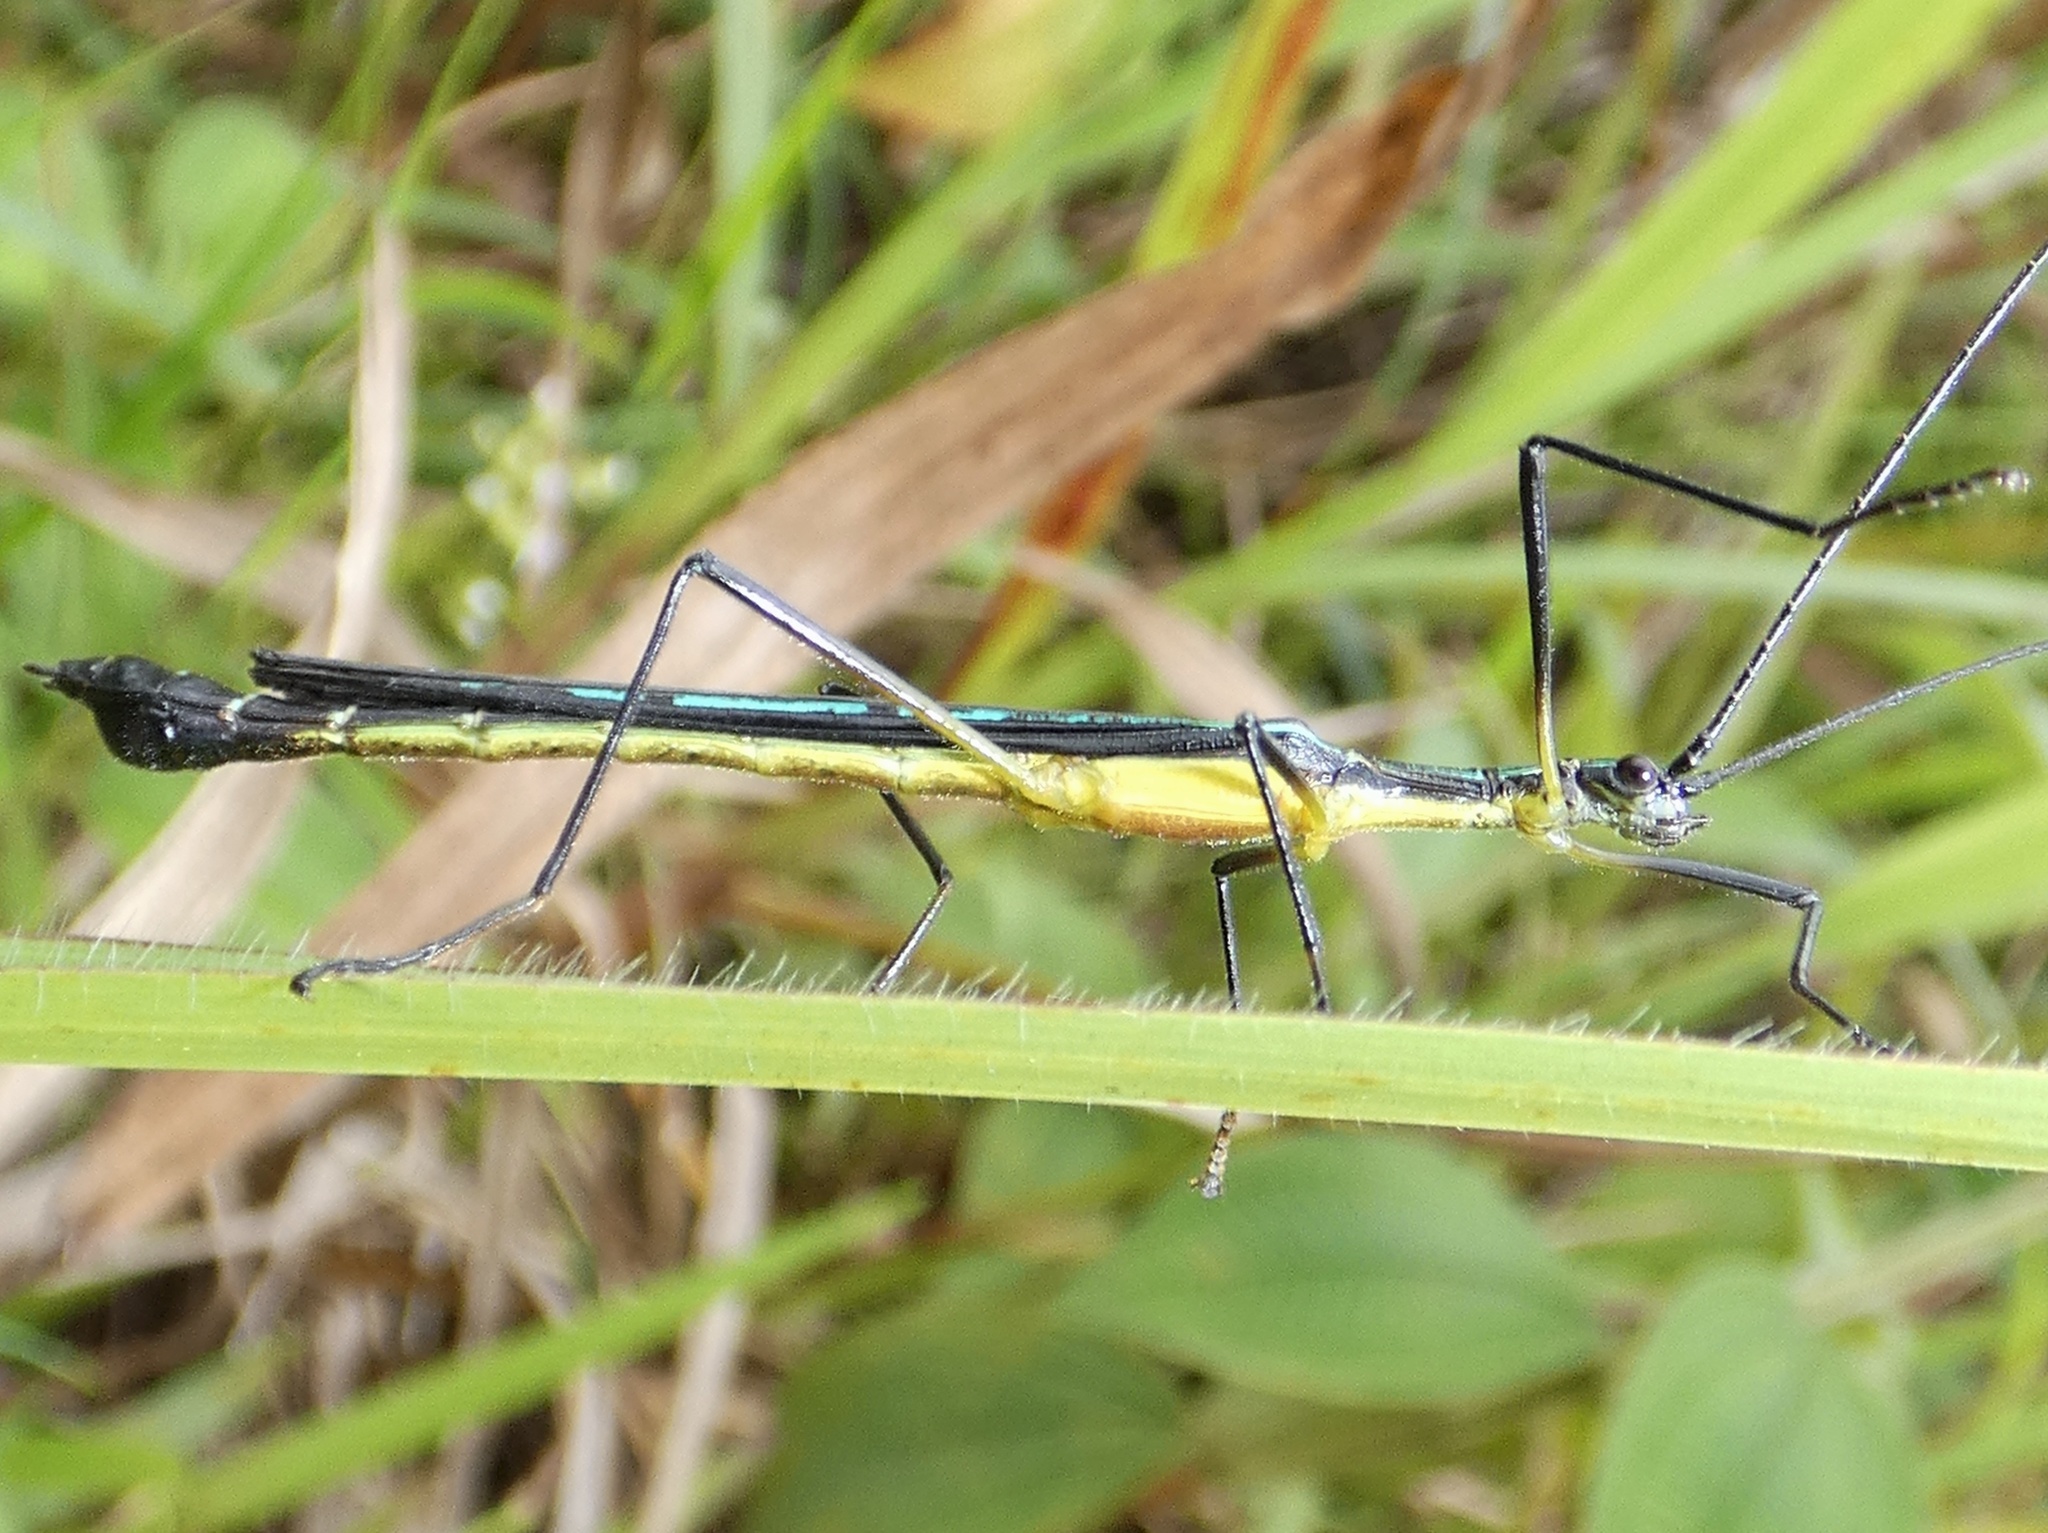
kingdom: Animalia
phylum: Arthropoda
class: Insecta
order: Phasmida
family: Pseudophasmatidae
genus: Cesaphasma
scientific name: Cesaphasma panamensis
